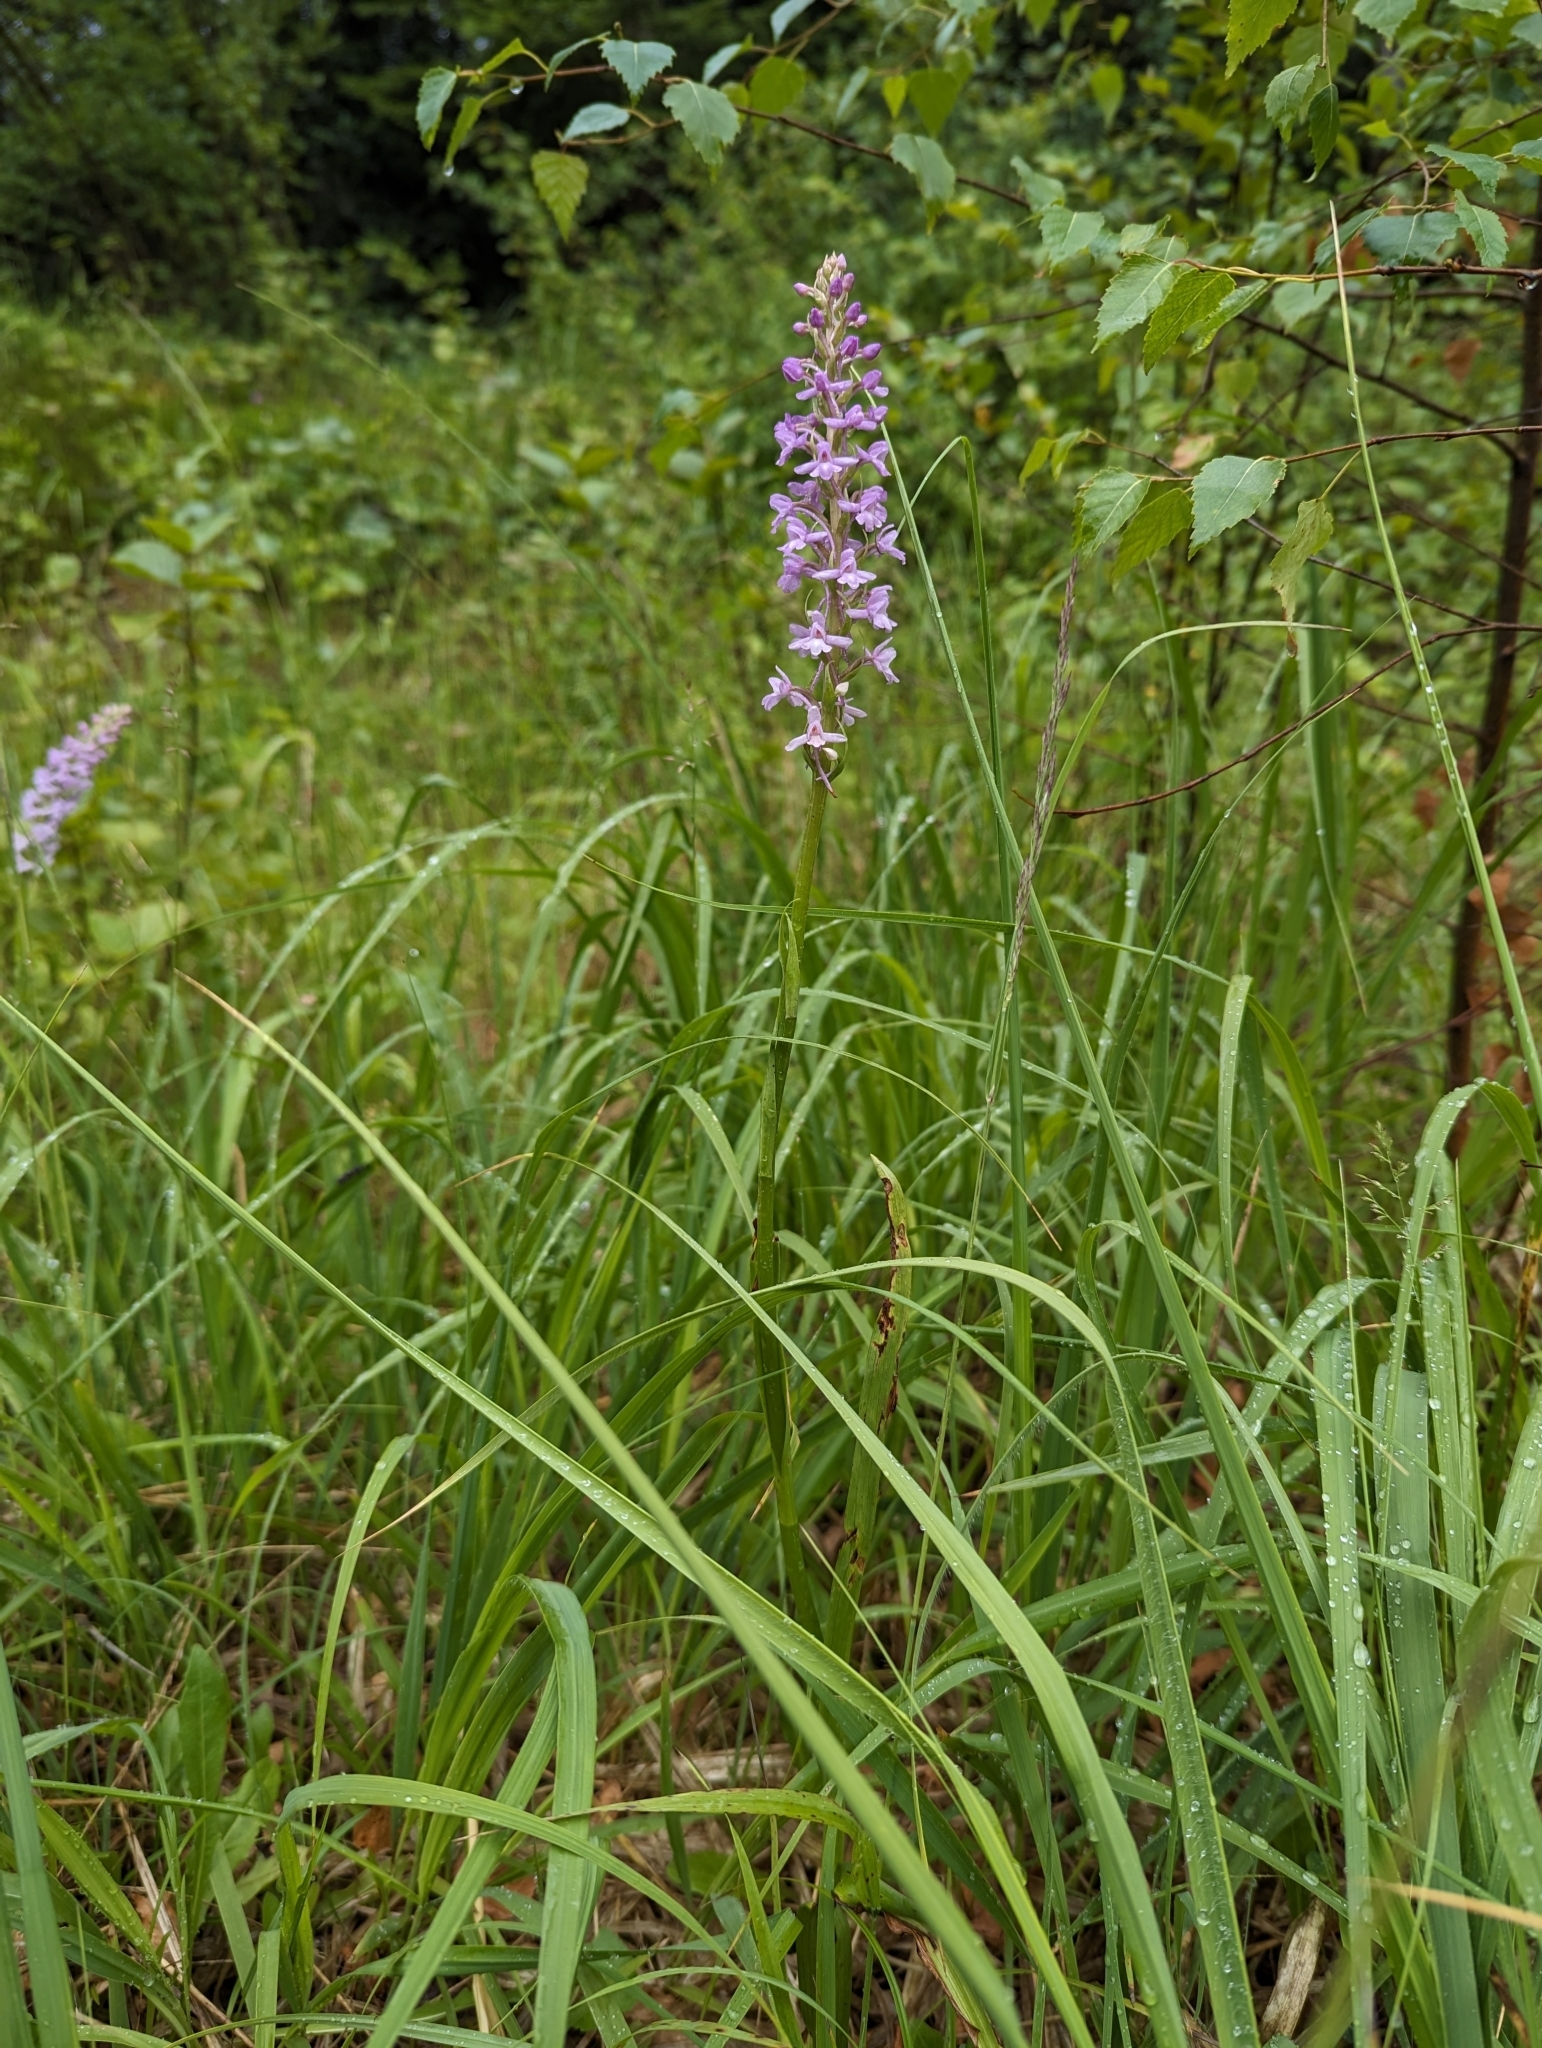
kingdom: Plantae
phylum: Tracheophyta
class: Magnoliopsida
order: Boraginales
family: Boraginaceae
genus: Echium
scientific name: Echium vulgare
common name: Common viper's bugloss
